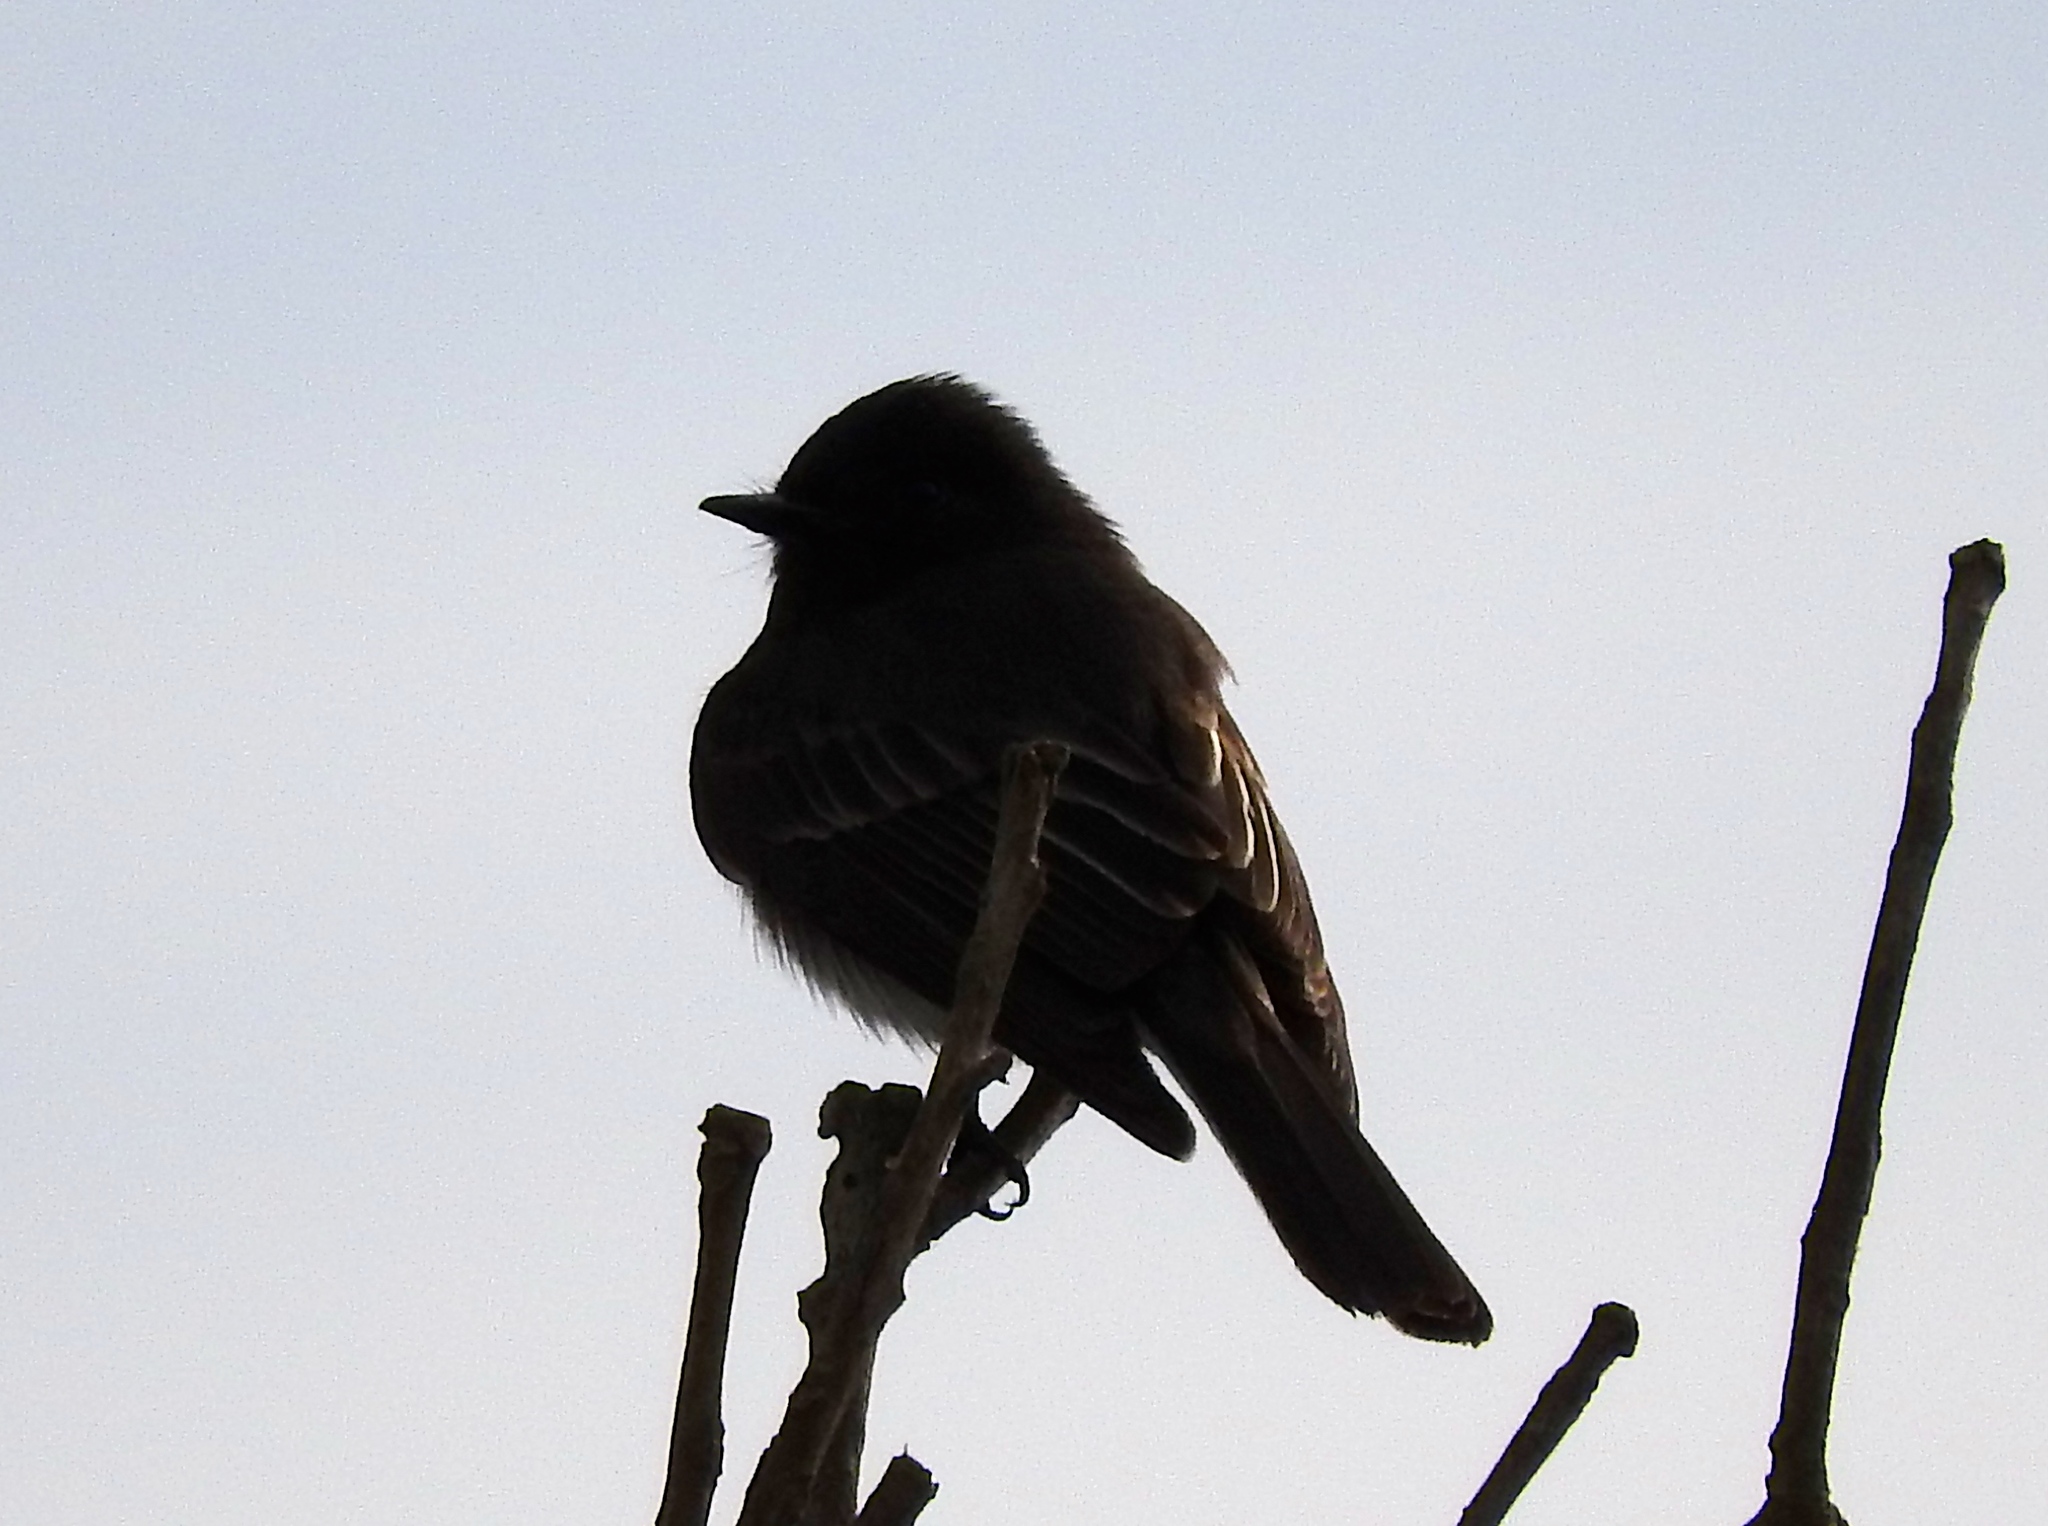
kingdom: Animalia
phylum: Chordata
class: Aves
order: Passeriformes
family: Tyrannidae
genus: Sayornis
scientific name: Sayornis nigricans
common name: Black phoebe
